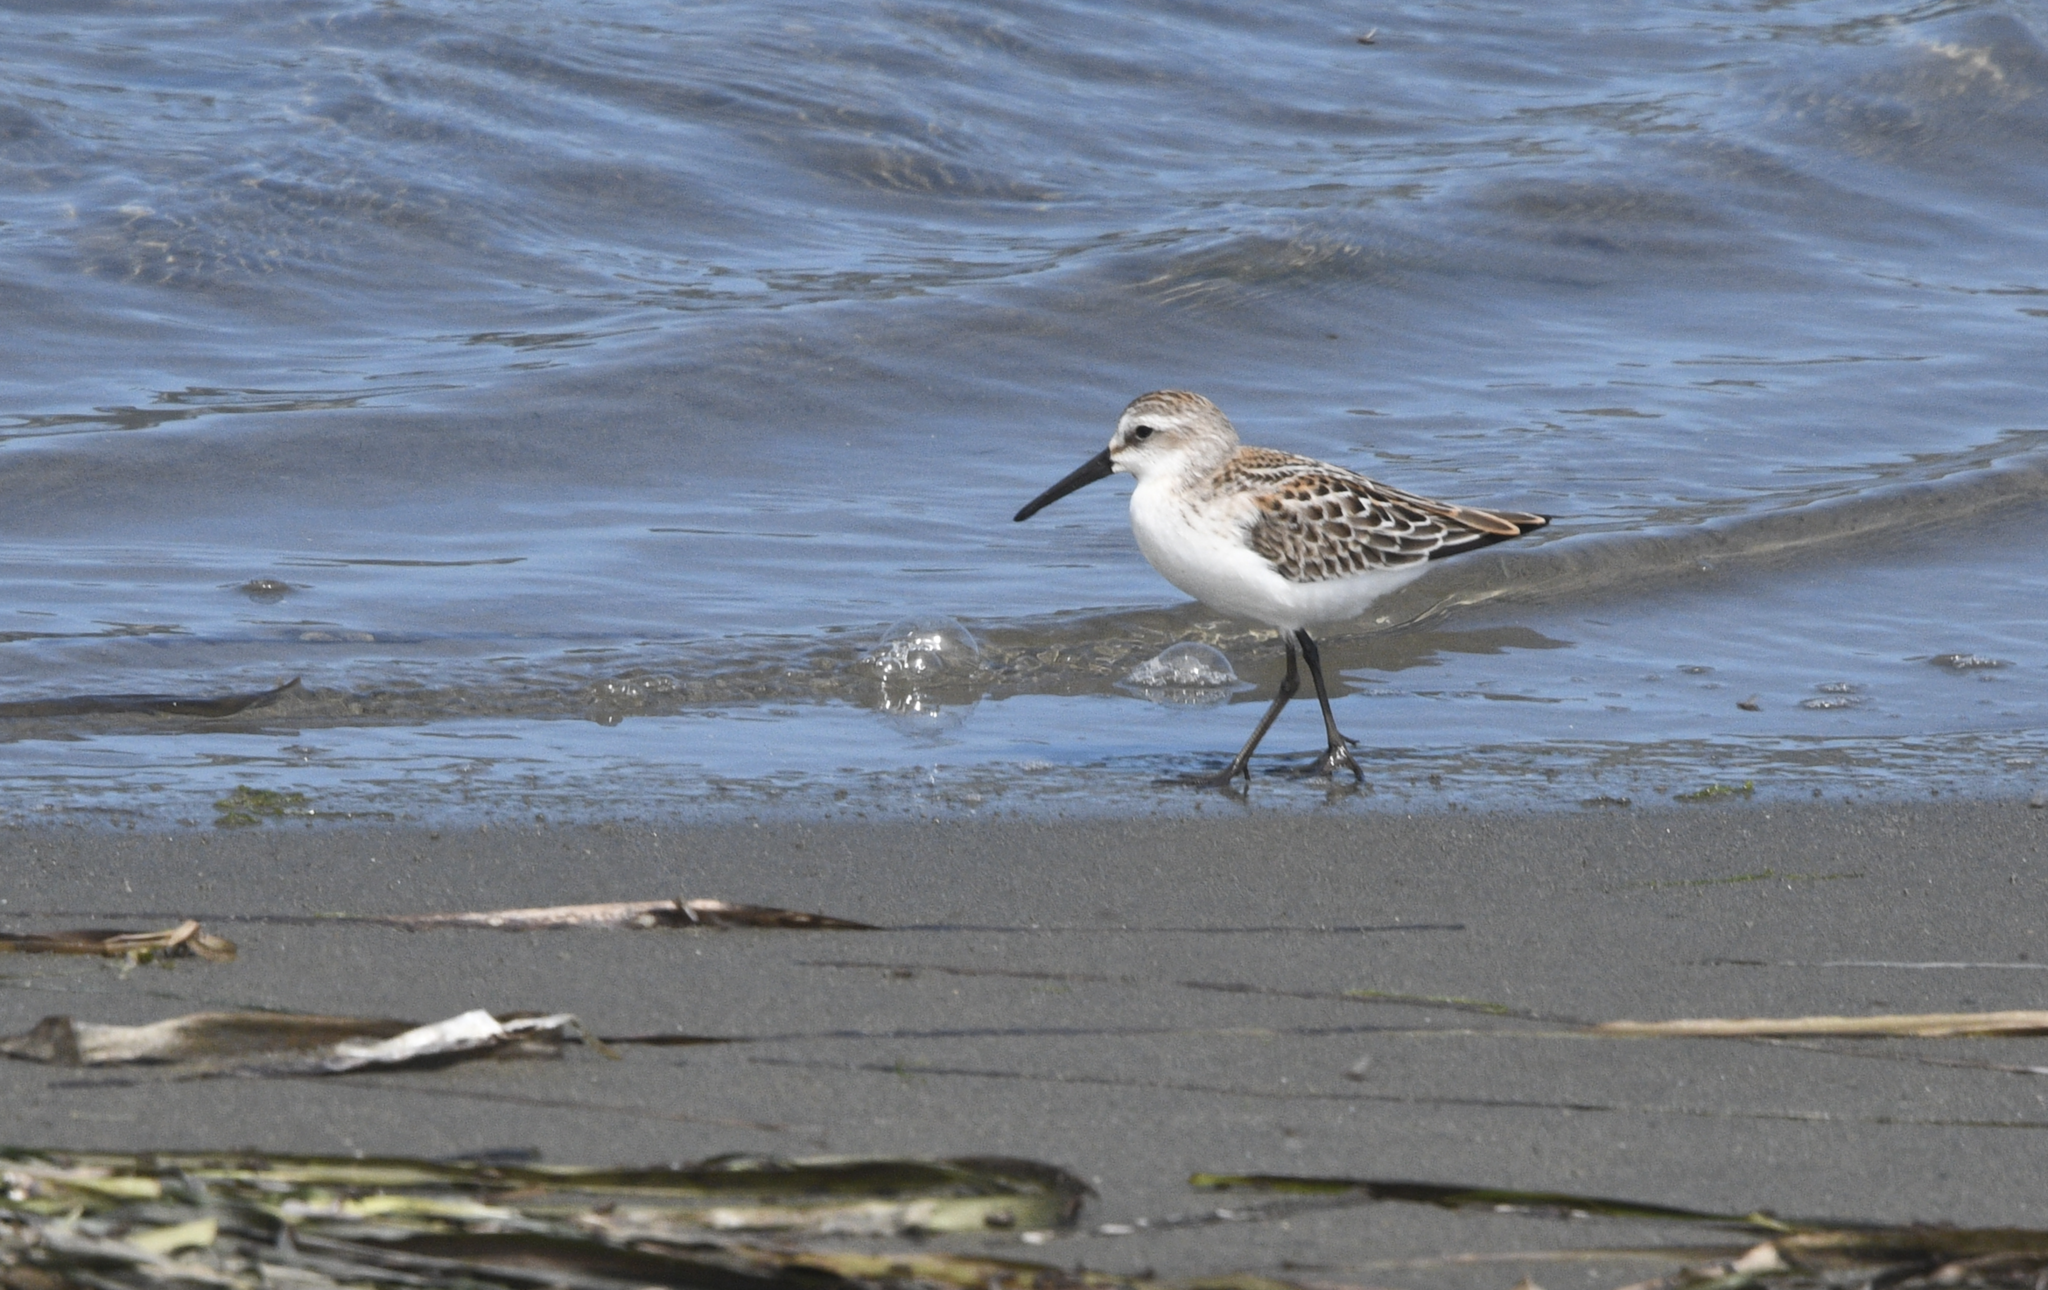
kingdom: Animalia
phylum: Chordata
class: Aves
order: Charadriiformes
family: Scolopacidae
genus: Calidris
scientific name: Calidris mauri
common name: Western sandpiper
